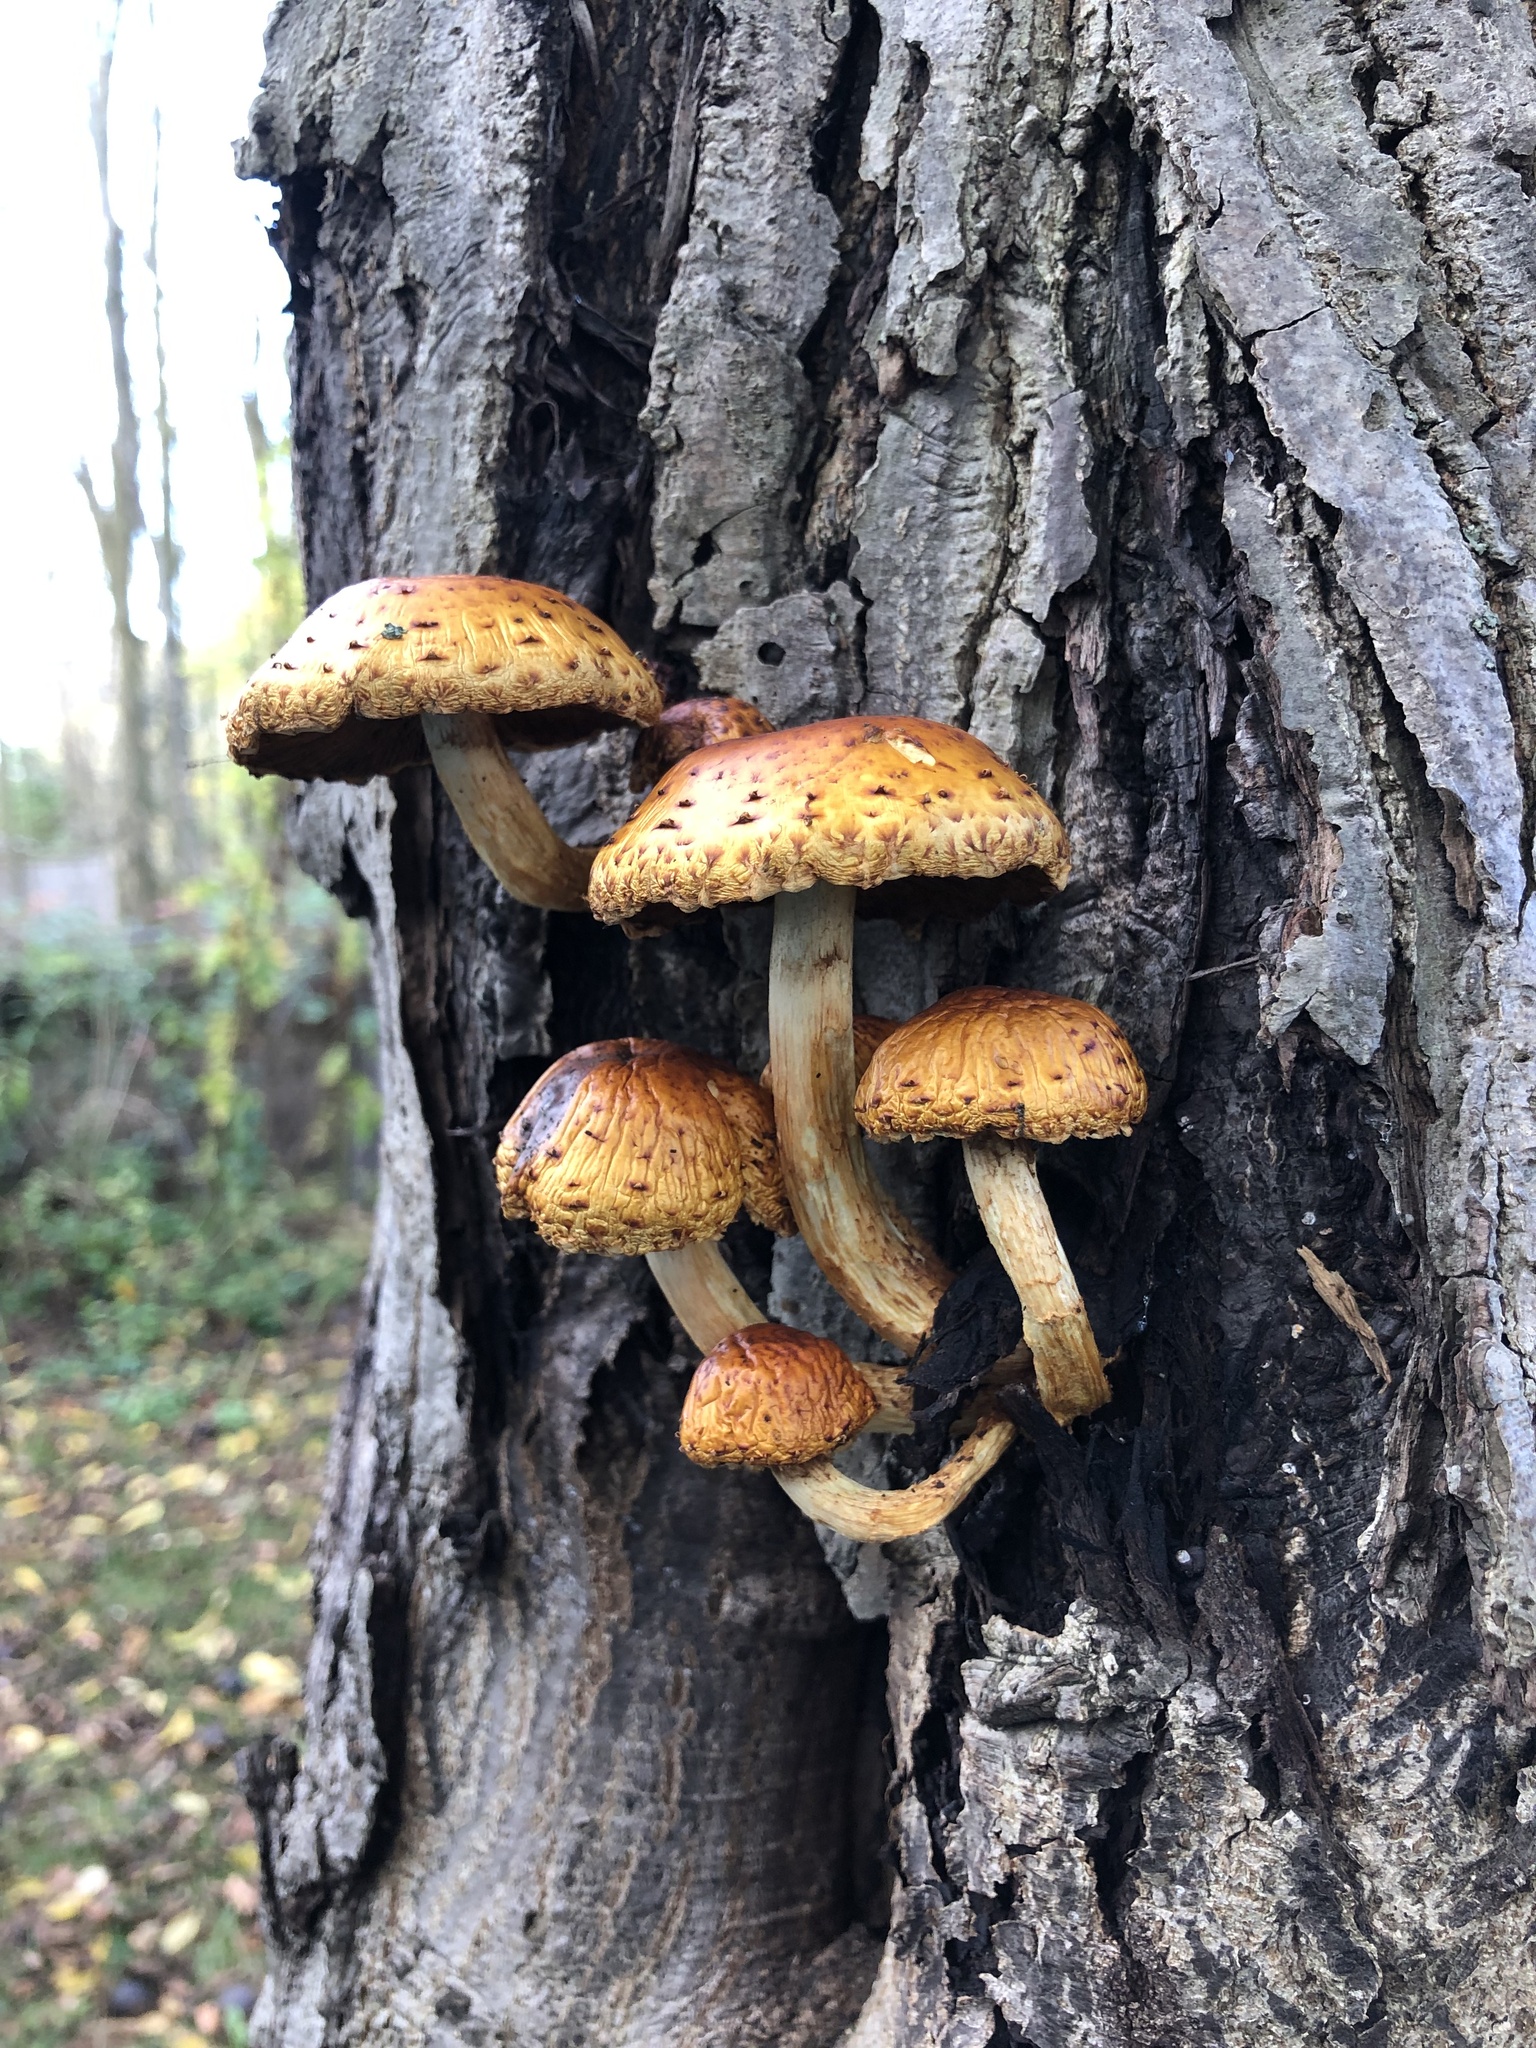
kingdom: Fungi
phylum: Basidiomycota
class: Agaricomycetes
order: Agaricales
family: Strophariaceae
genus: Pholiota
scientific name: Pholiota aurivella
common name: Golden scalycap
